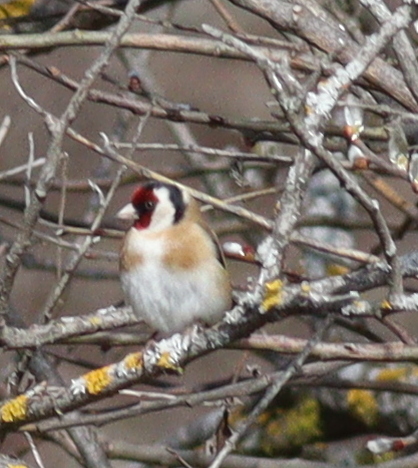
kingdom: Animalia
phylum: Chordata
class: Aves
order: Passeriformes
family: Fringillidae
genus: Carduelis
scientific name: Carduelis carduelis
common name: European goldfinch
